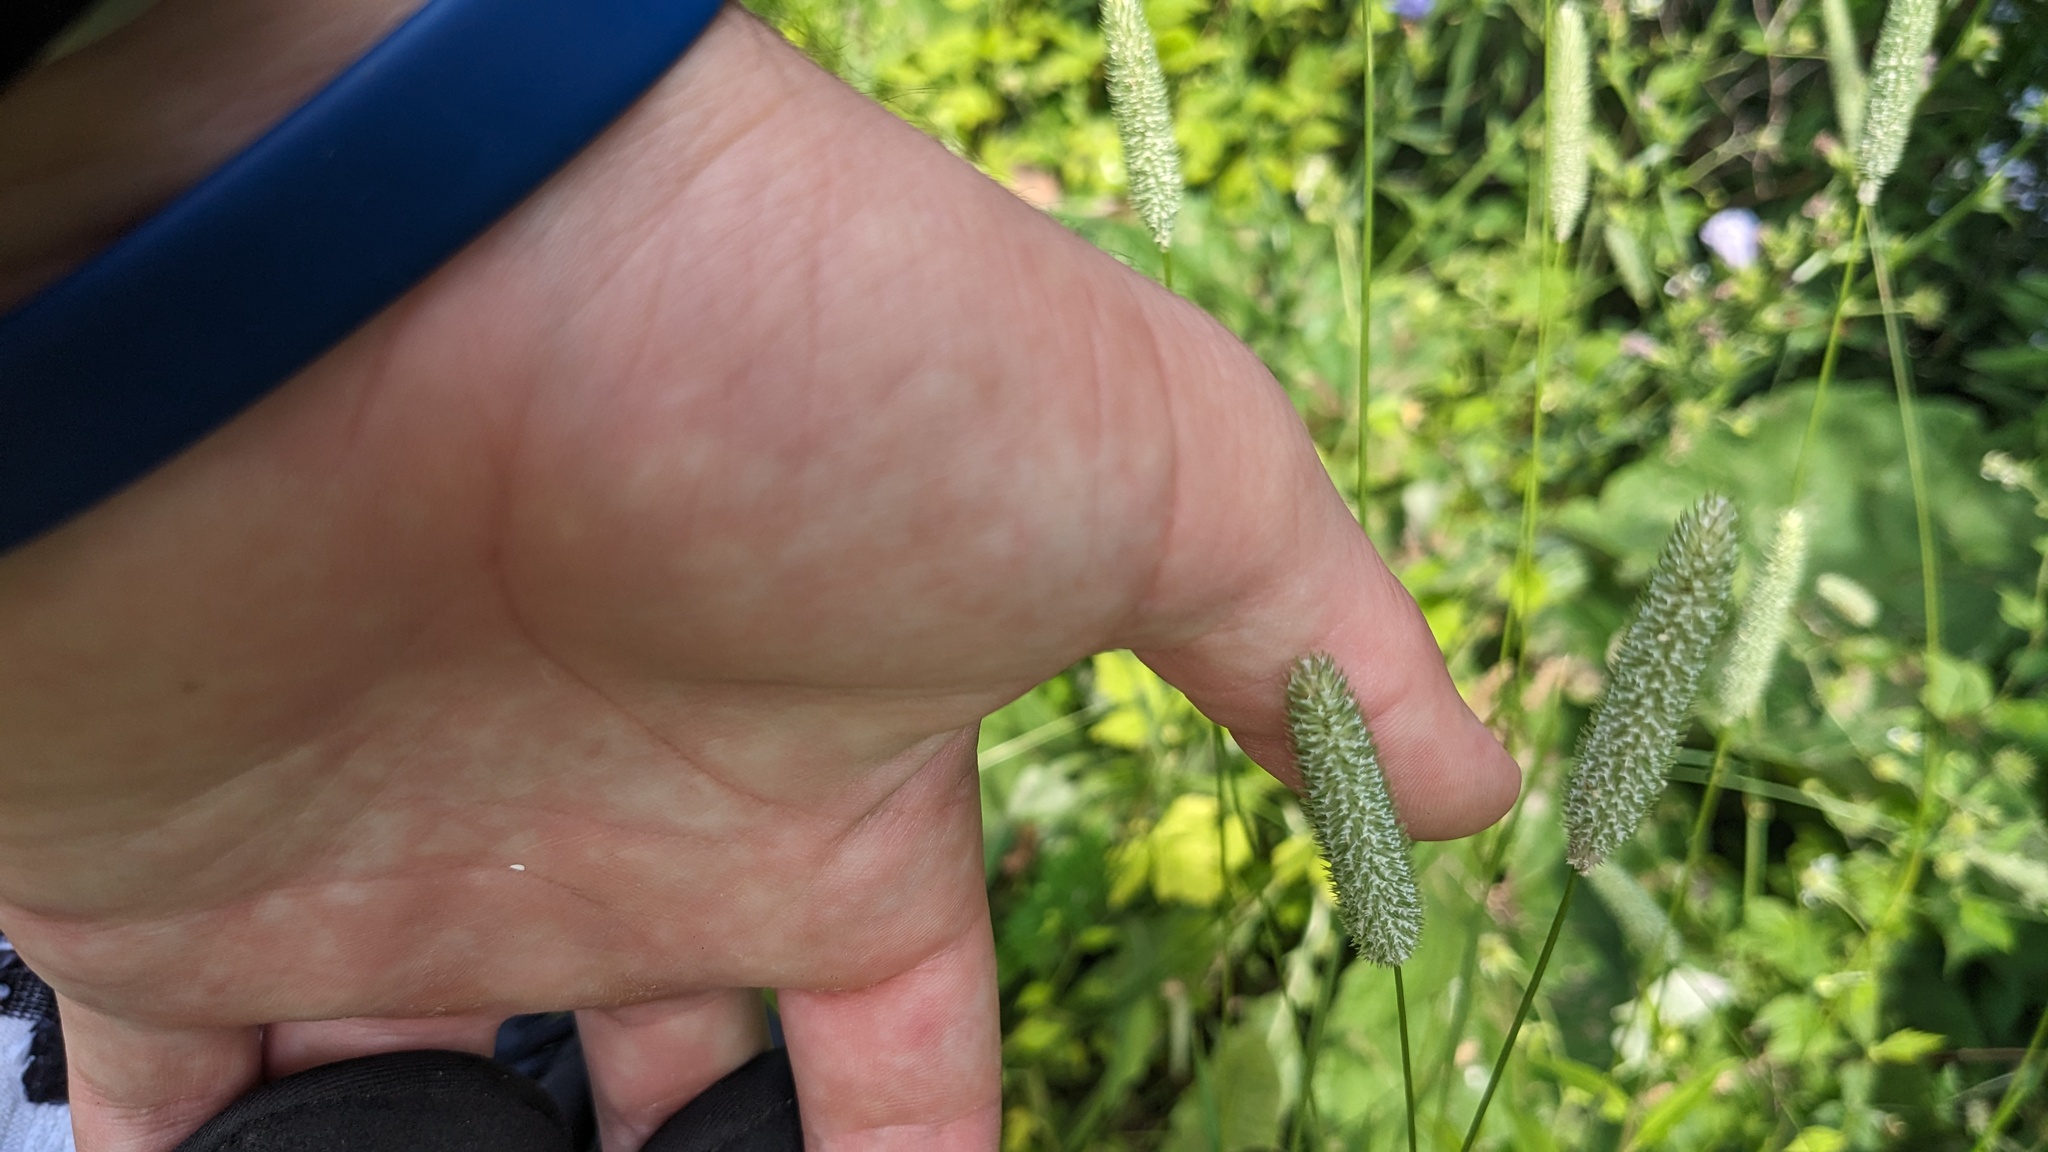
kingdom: Plantae
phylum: Tracheophyta
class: Liliopsida
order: Poales
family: Poaceae
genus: Phleum
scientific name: Phleum pratense
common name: Timothy grass
